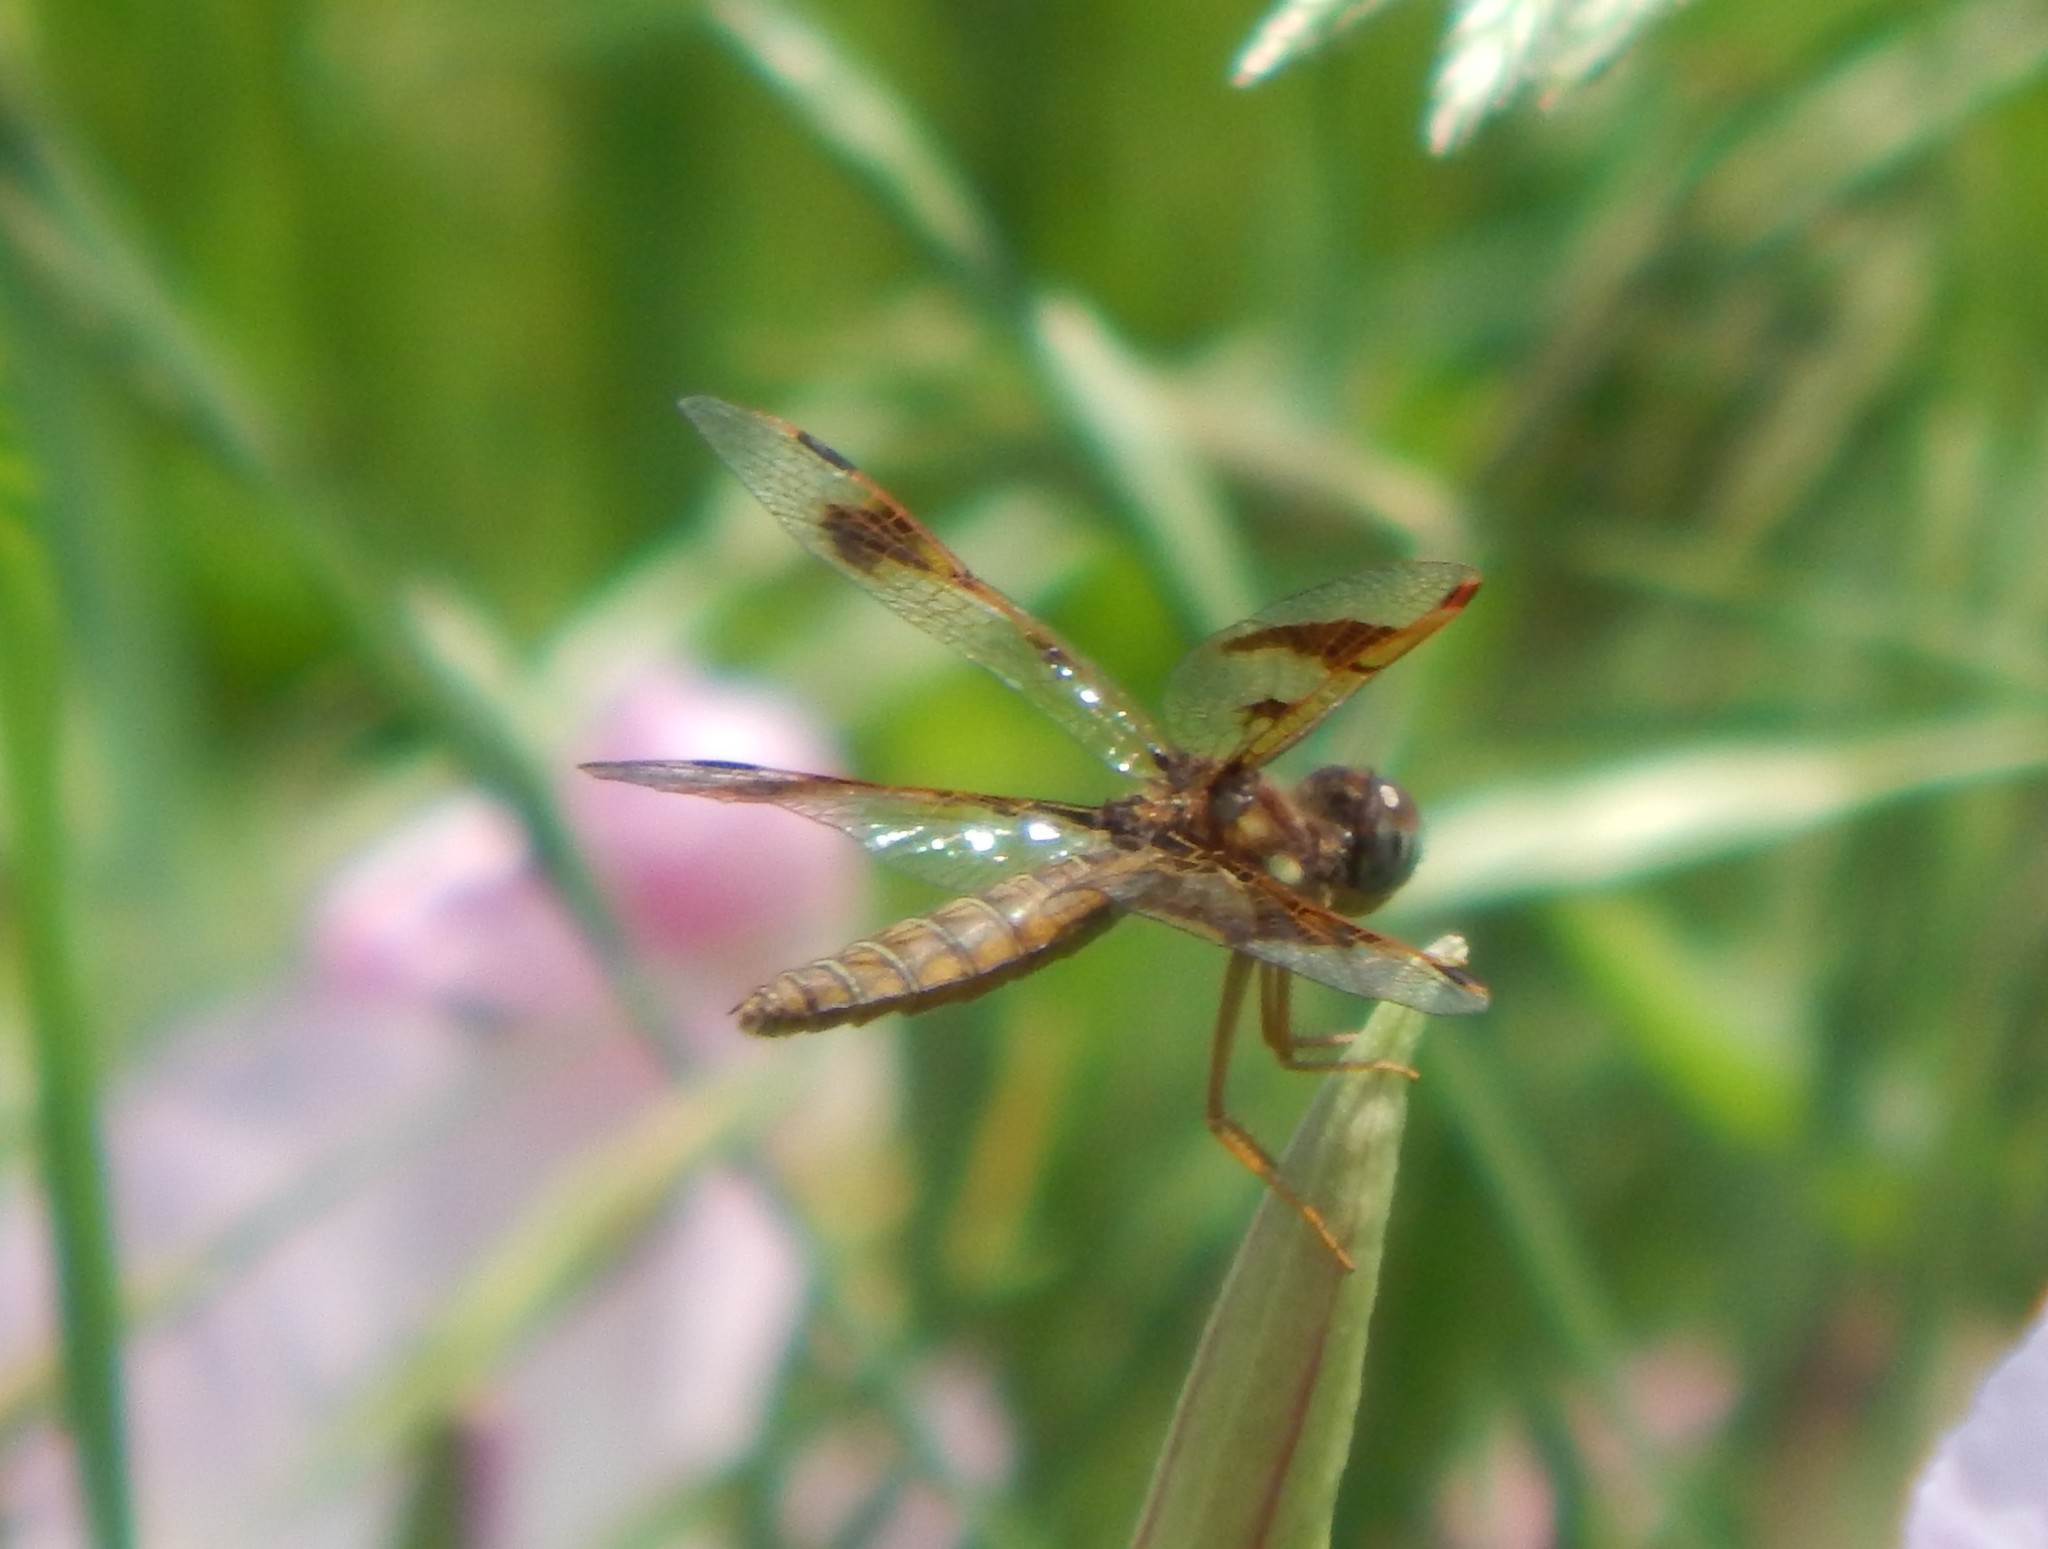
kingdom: Animalia
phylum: Arthropoda
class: Insecta
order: Odonata
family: Libellulidae
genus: Perithemis
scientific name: Perithemis tenera
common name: Eastern amberwing
